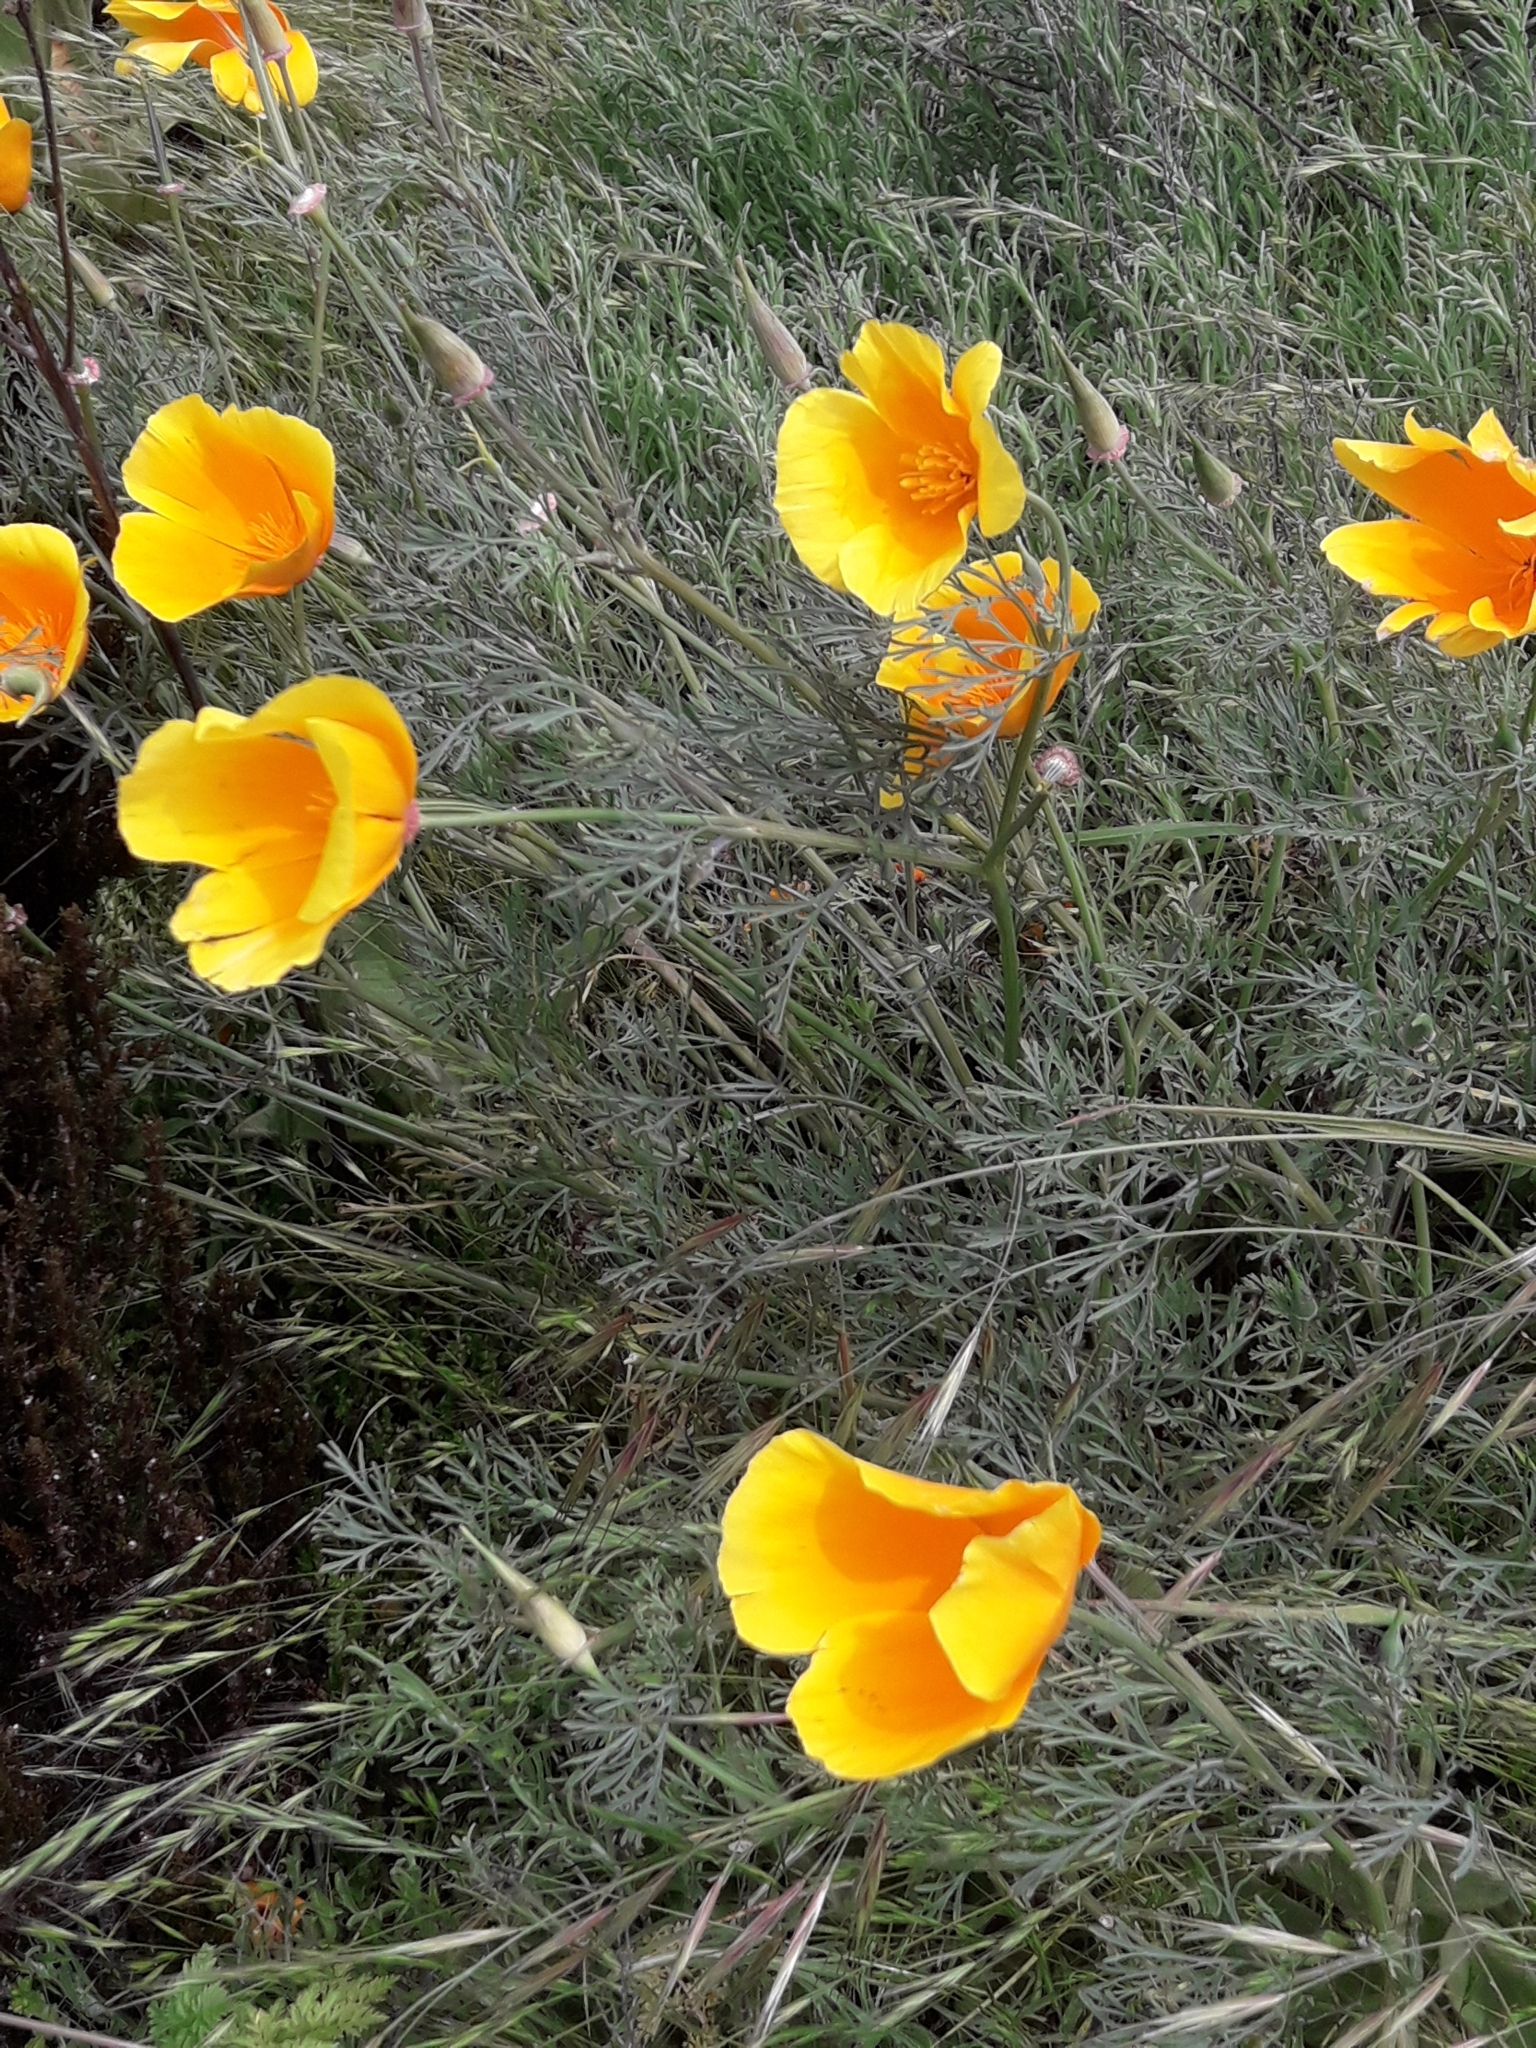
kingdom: Plantae
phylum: Tracheophyta
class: Magnoliopsida
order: Ranunculales
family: Papaveraceae
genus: Eschscholzia
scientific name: Eschscholzia californica
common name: California poppy
